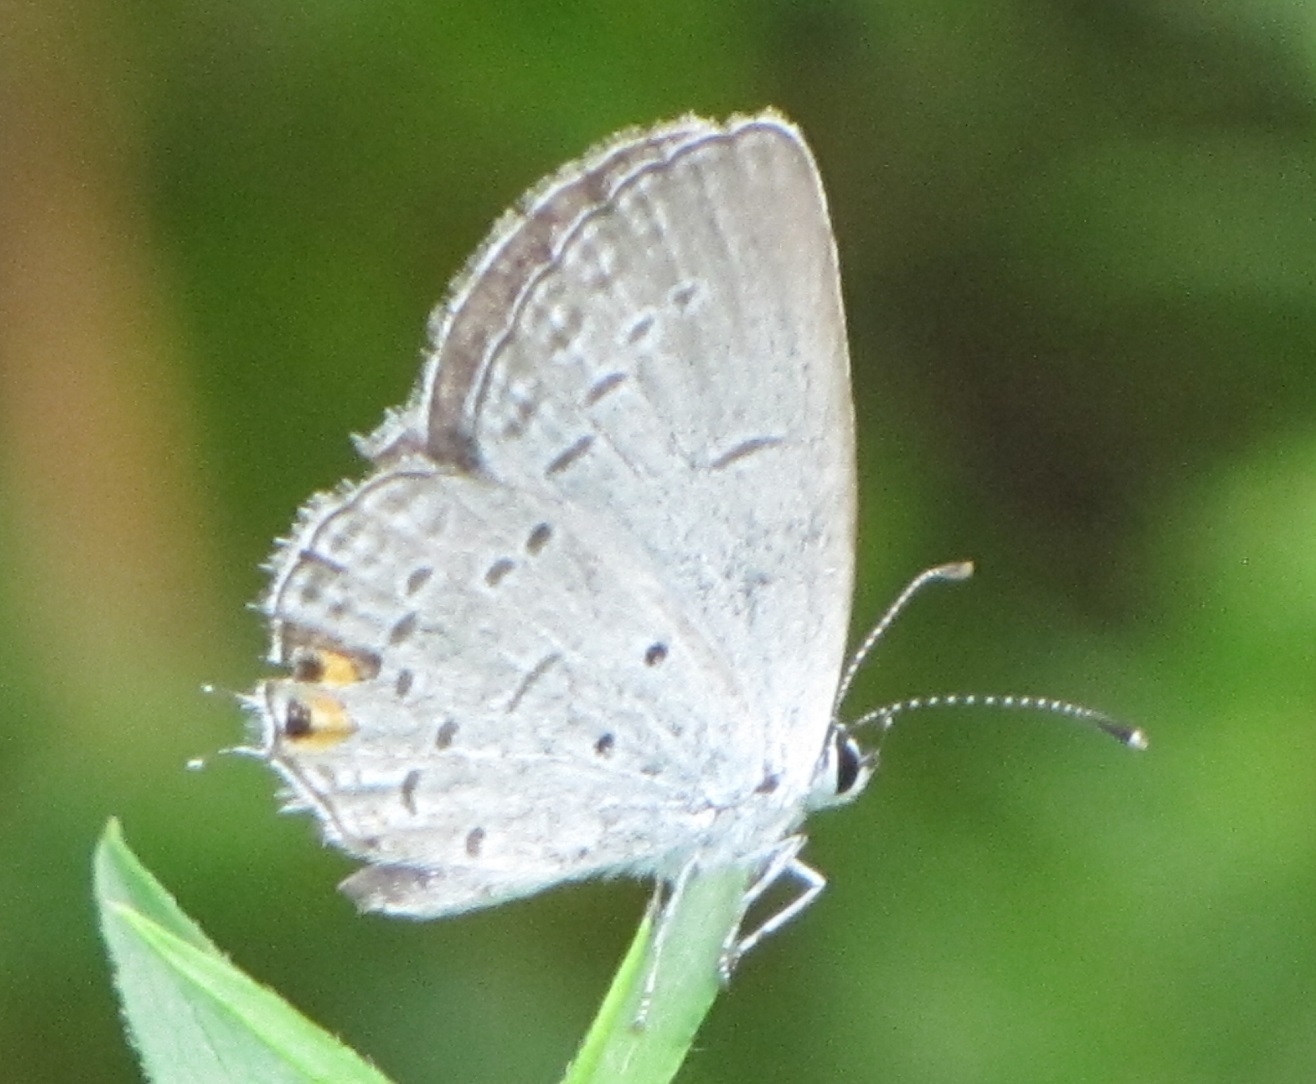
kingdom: Animalia
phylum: Arthropoda
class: Insecta
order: Lepidoptera
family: Lycaenidae
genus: Elkalyce
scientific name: Elkalyce comyntas
